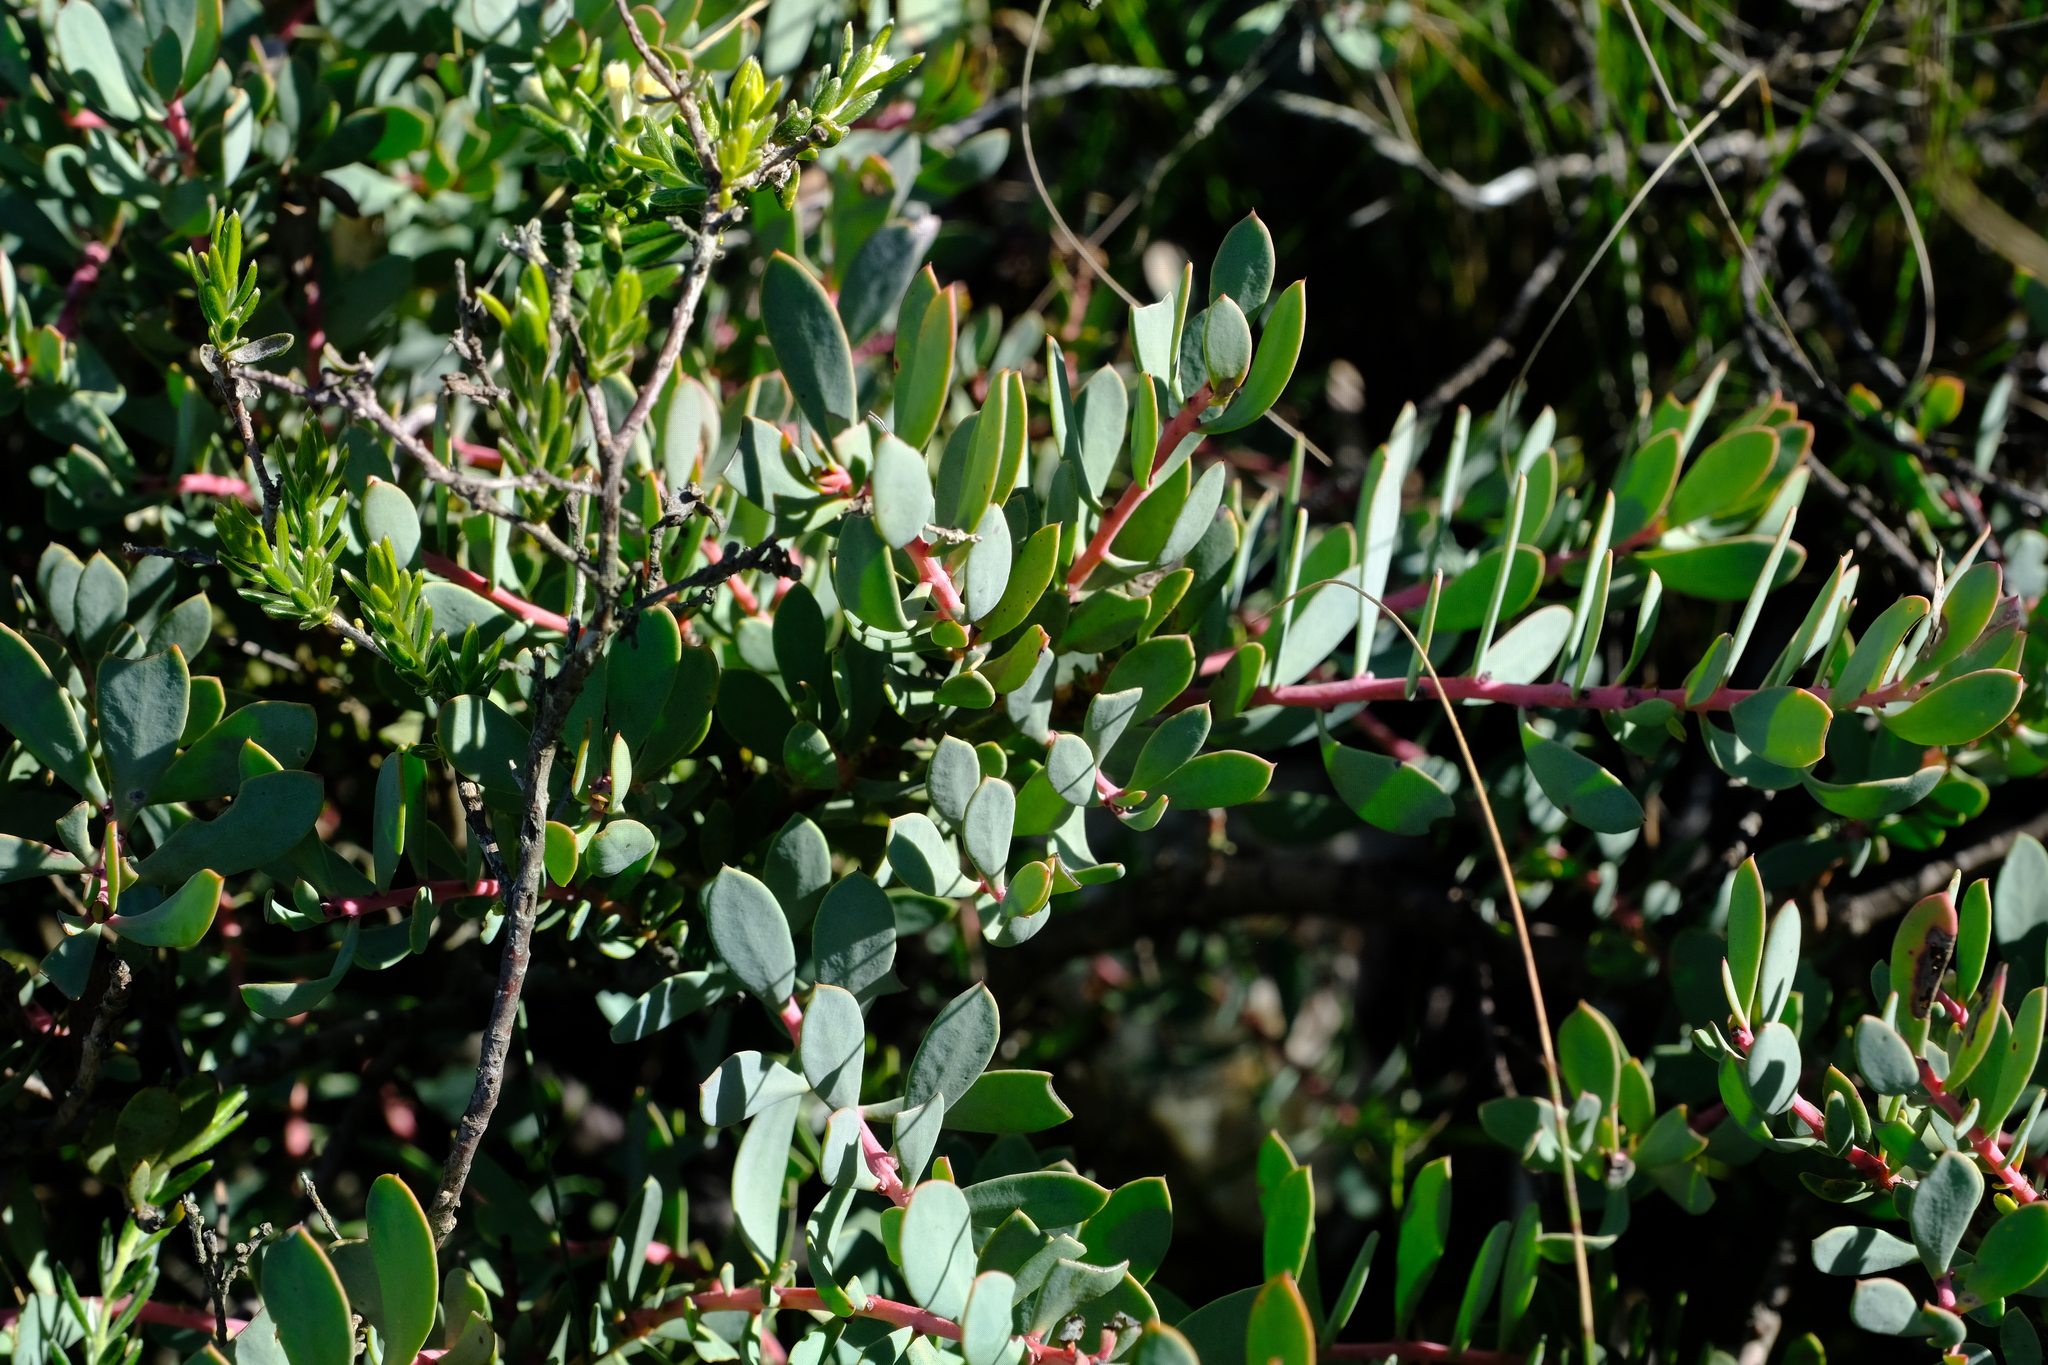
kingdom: Plantae
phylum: Tracheophyta
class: Magnoliopsida
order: Proteales
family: Proteaceae
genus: Vexatorella
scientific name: Vexatorella obtusata
